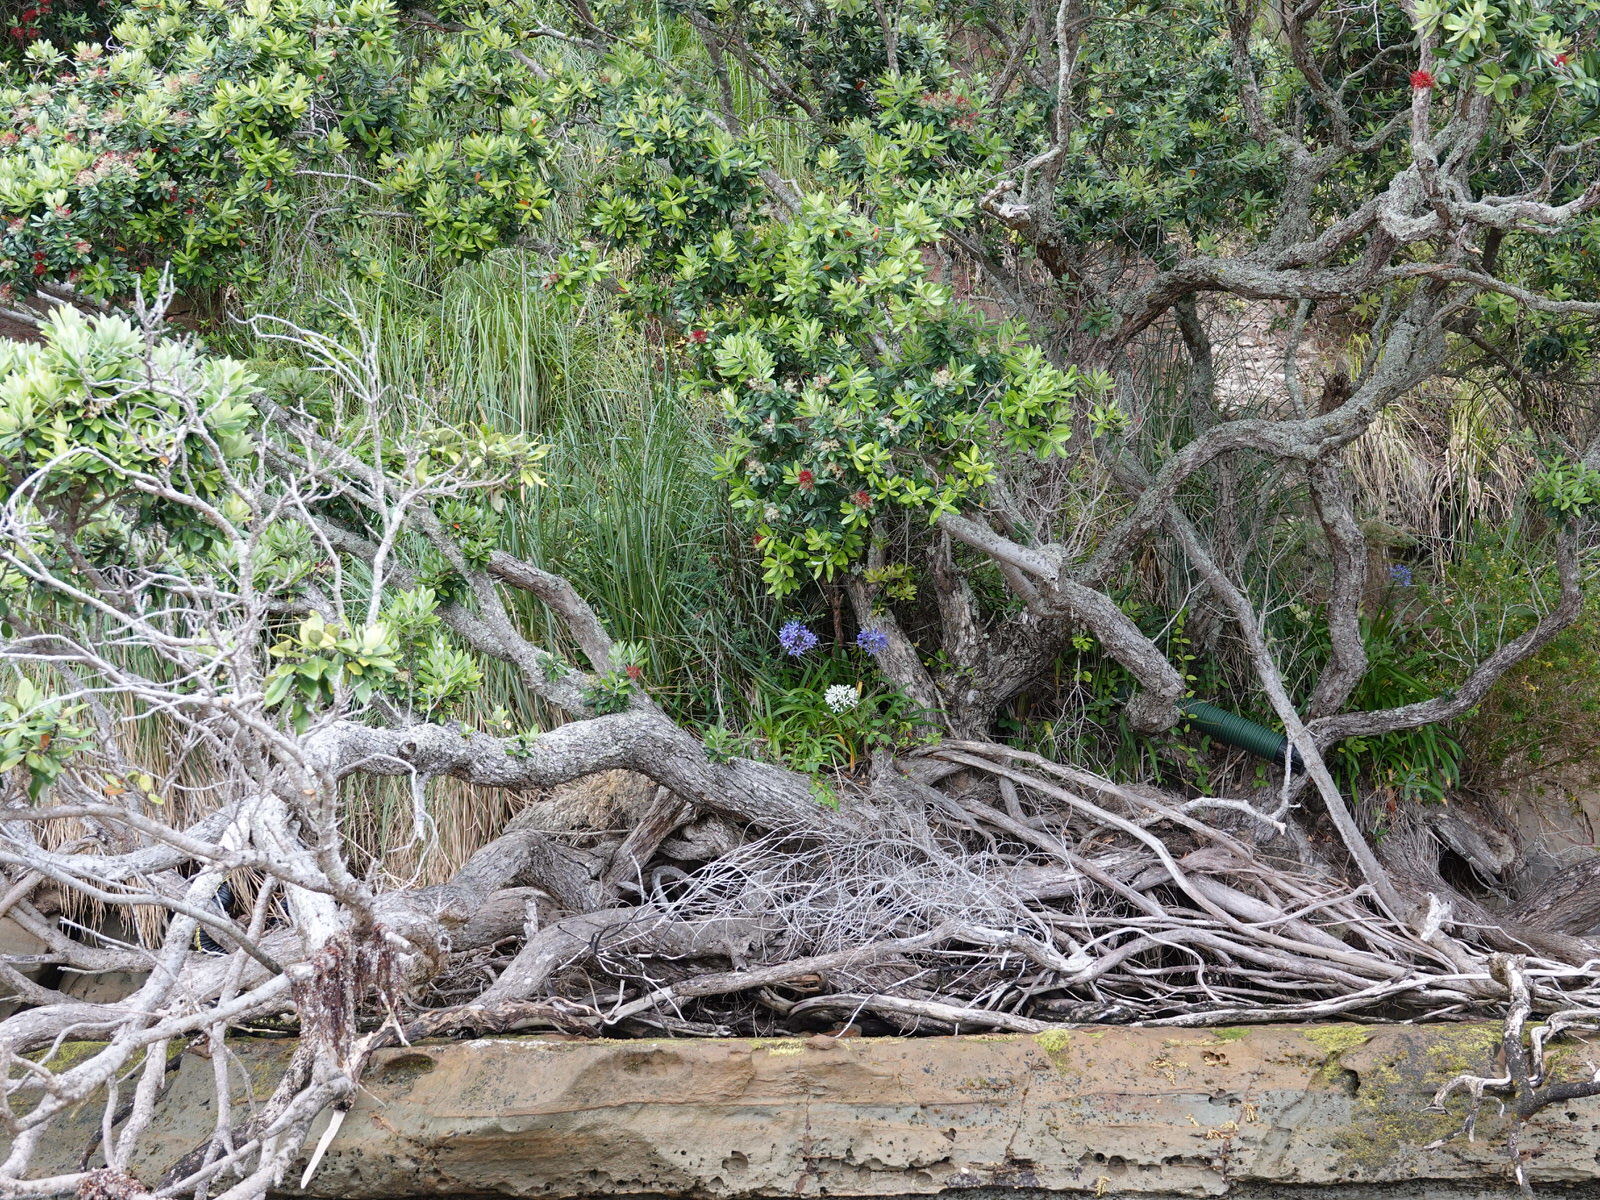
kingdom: Plantae
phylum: Tracheophyta
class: Liliopsida
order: Asparagales
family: Amaryllidaceae
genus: Agapanthus
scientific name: Agapanthus praecox
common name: African-lily
